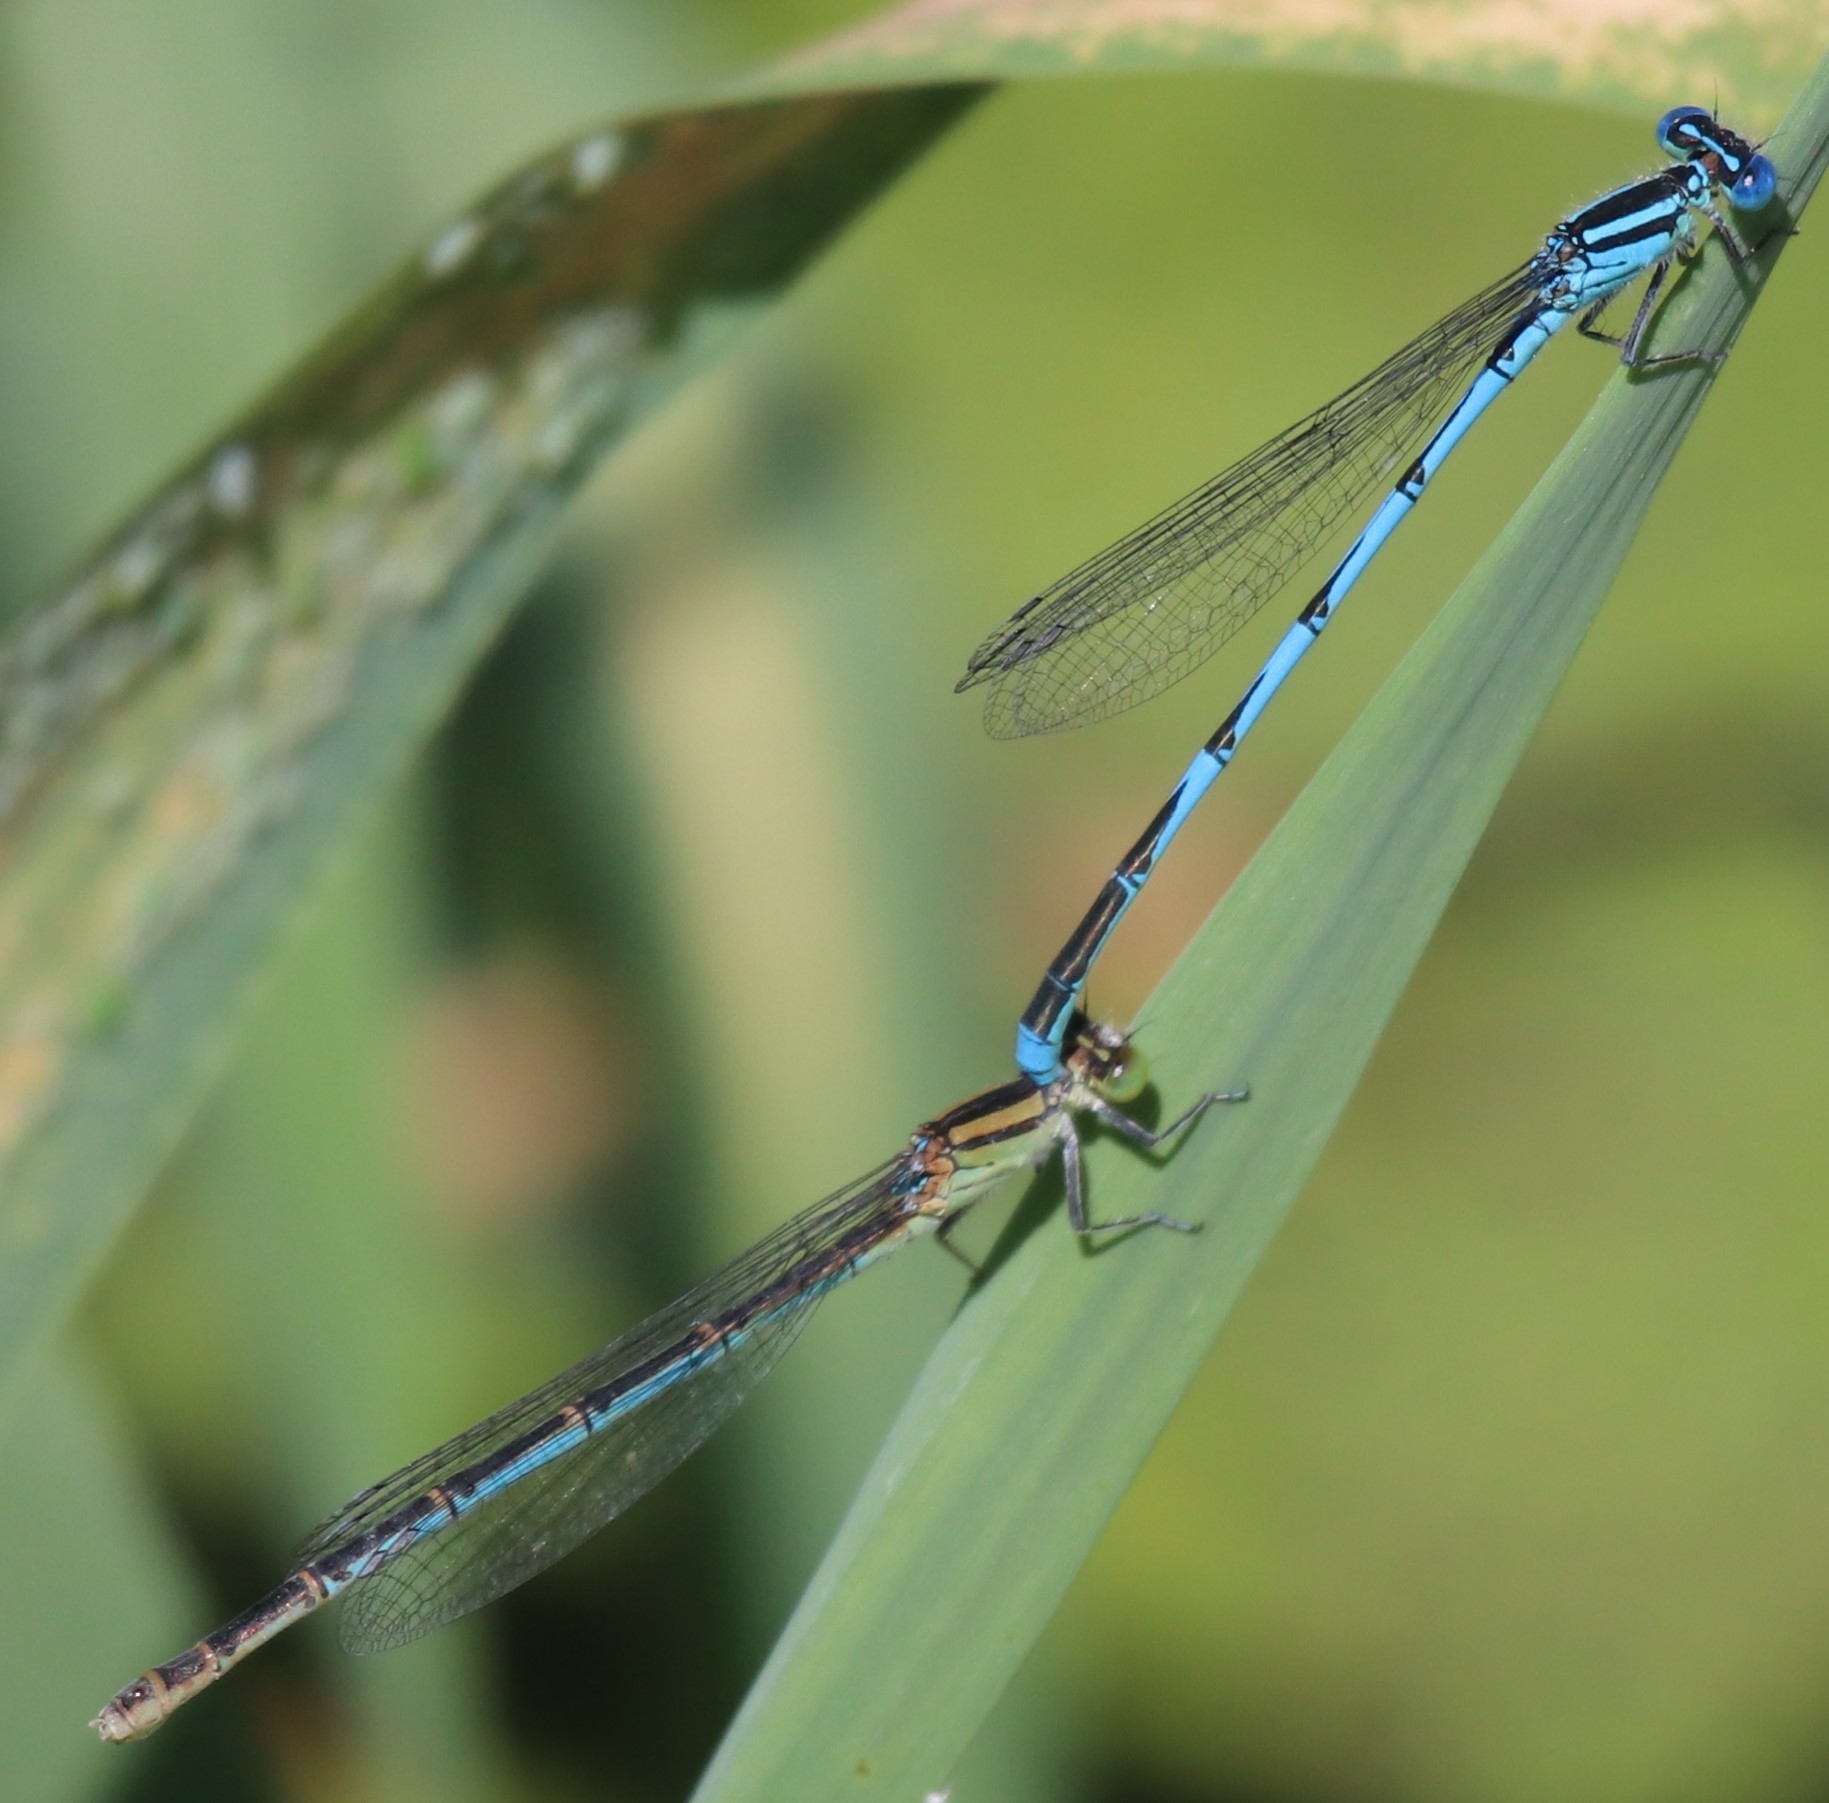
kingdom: Animalia
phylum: Arthropoda
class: Insecta
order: Odonata
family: Coenagrionidae
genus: Erythromma
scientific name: Erythromma lindenii
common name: Blue-eye
